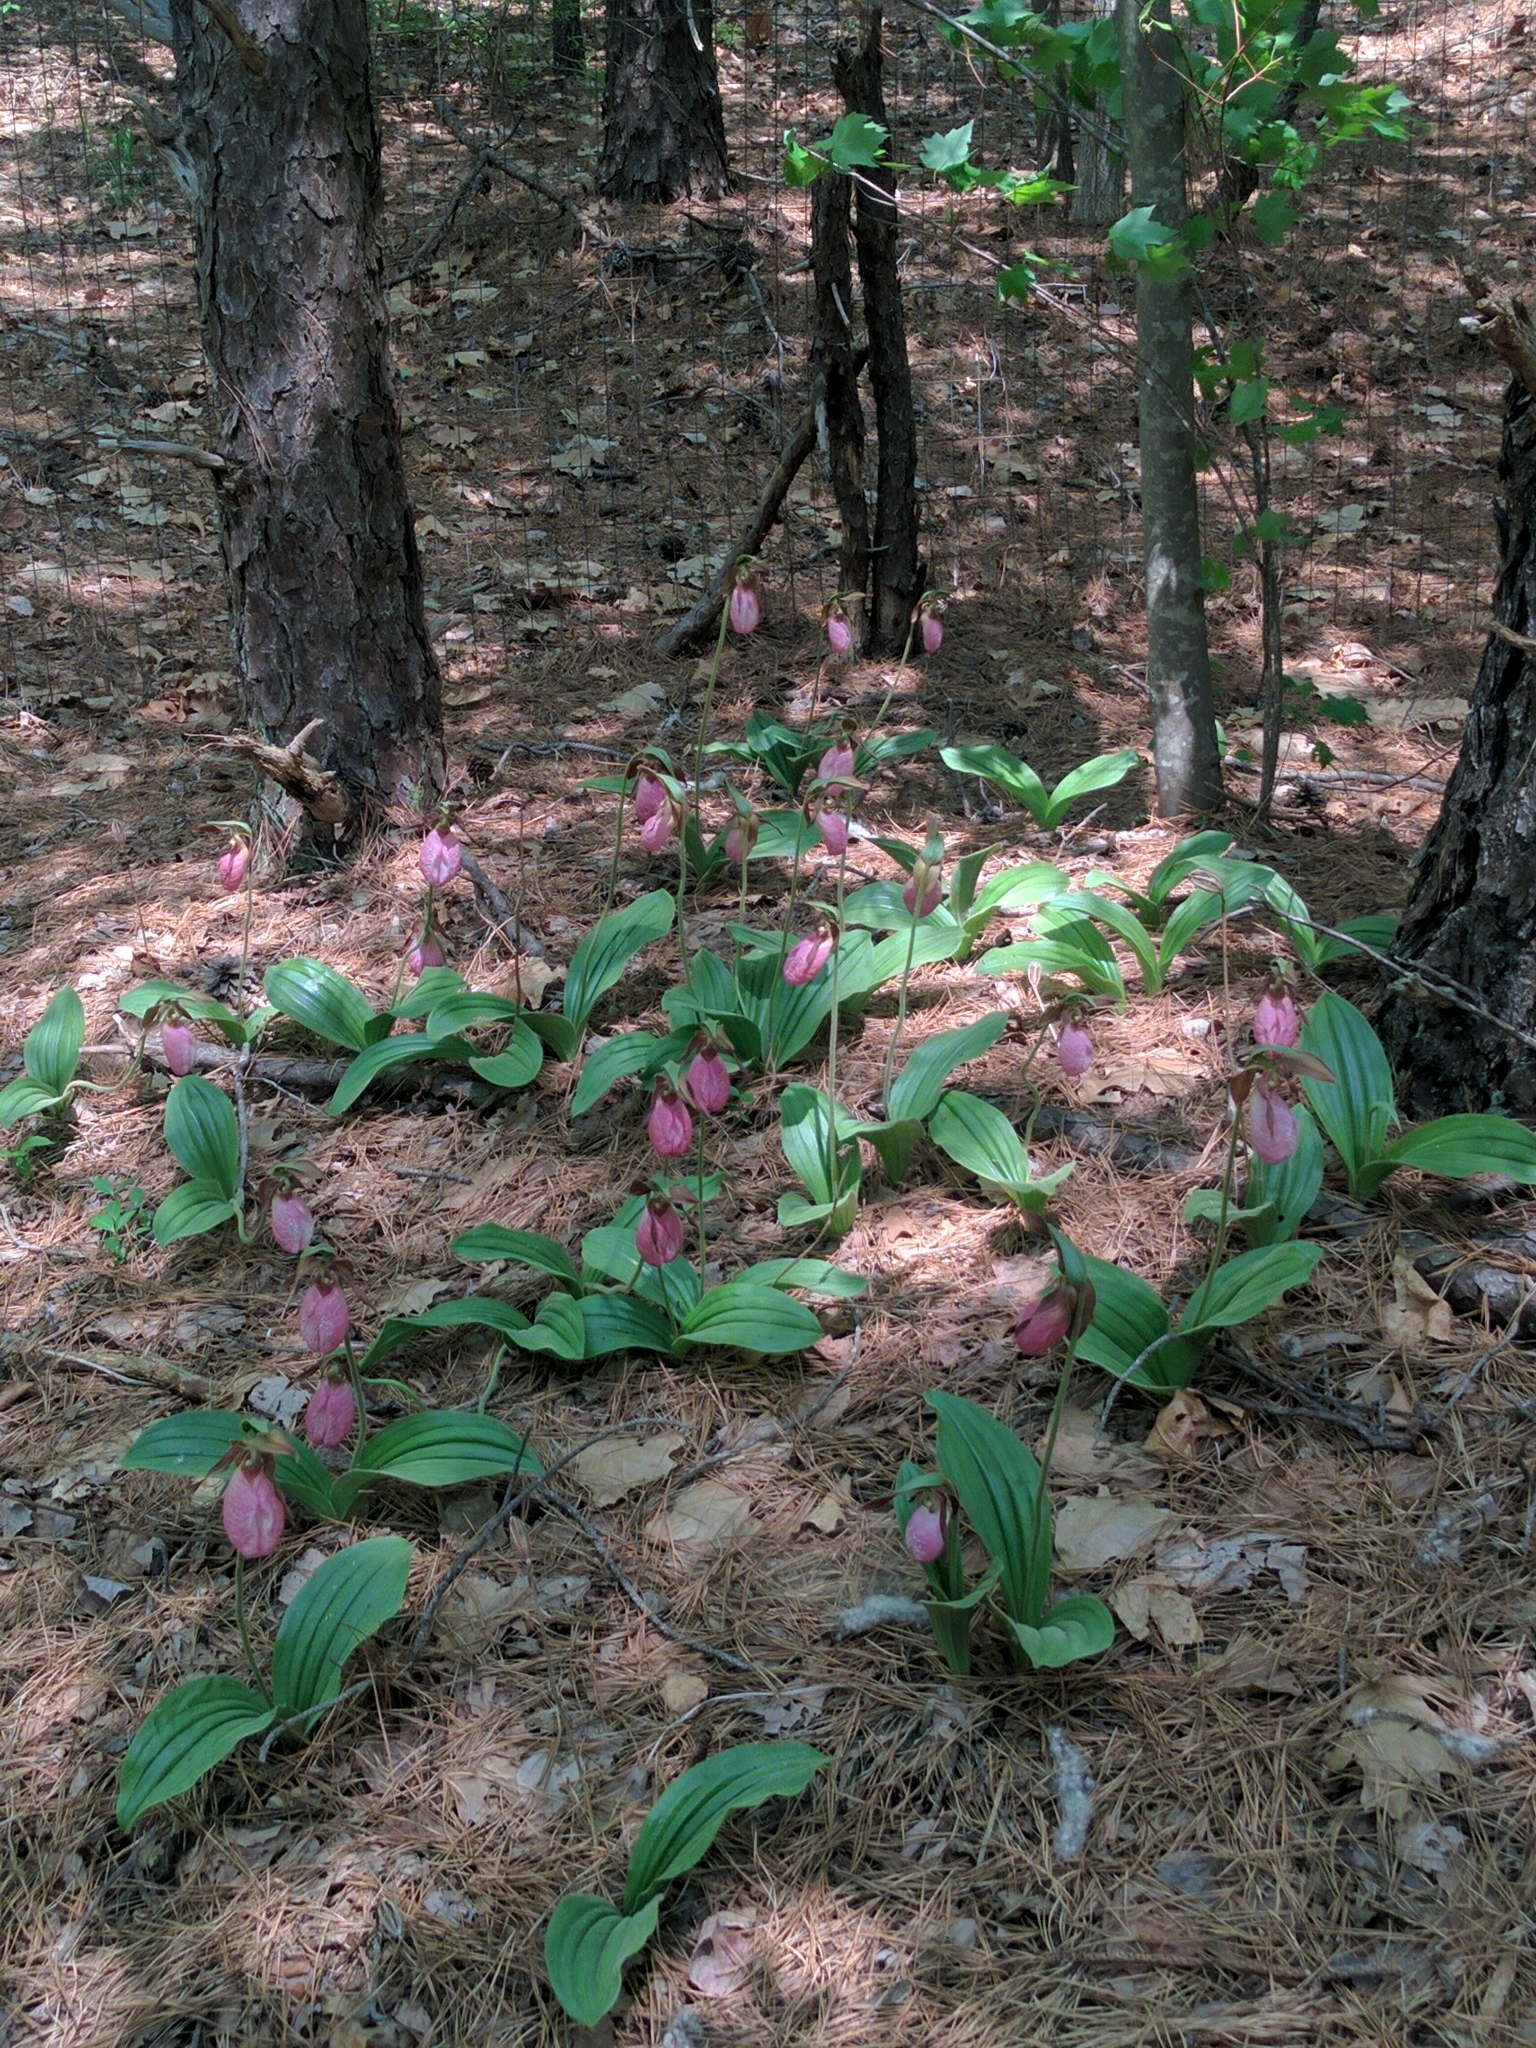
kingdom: Plantae
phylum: Tracheophyta
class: Liliopsida
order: Asparagales
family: Orchidaceae
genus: Cypripedium
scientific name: Cypripedium acaule
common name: Pink lady's-slipper
